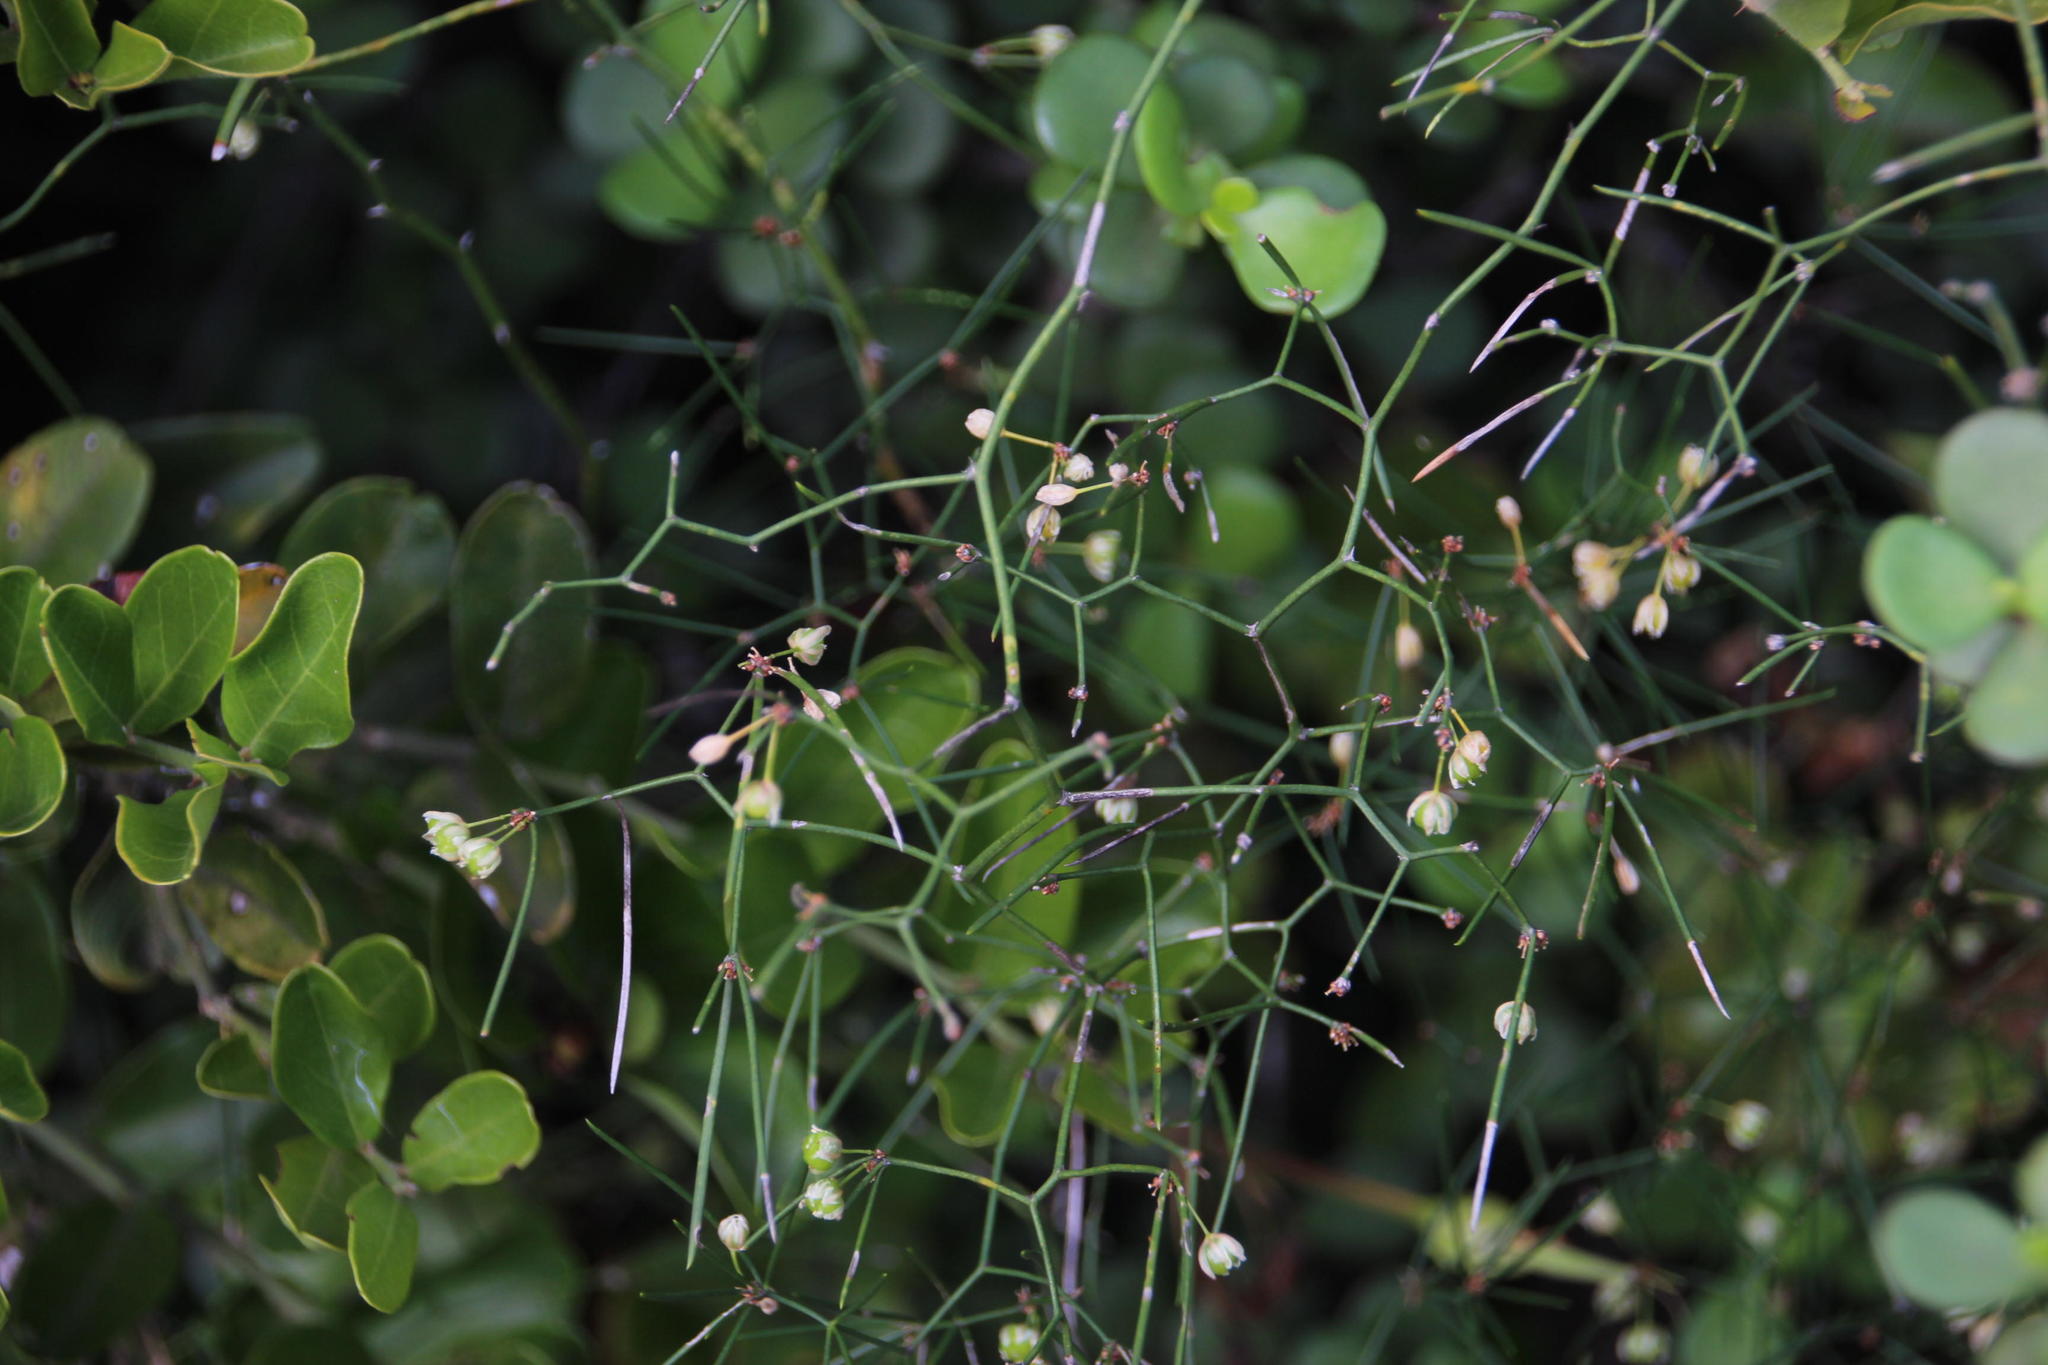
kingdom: Plantae
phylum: Tracheophyta
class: Liliopsida
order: Asparagales
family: Asparagaceae
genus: Asparagus
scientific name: Asparagus subulatus
